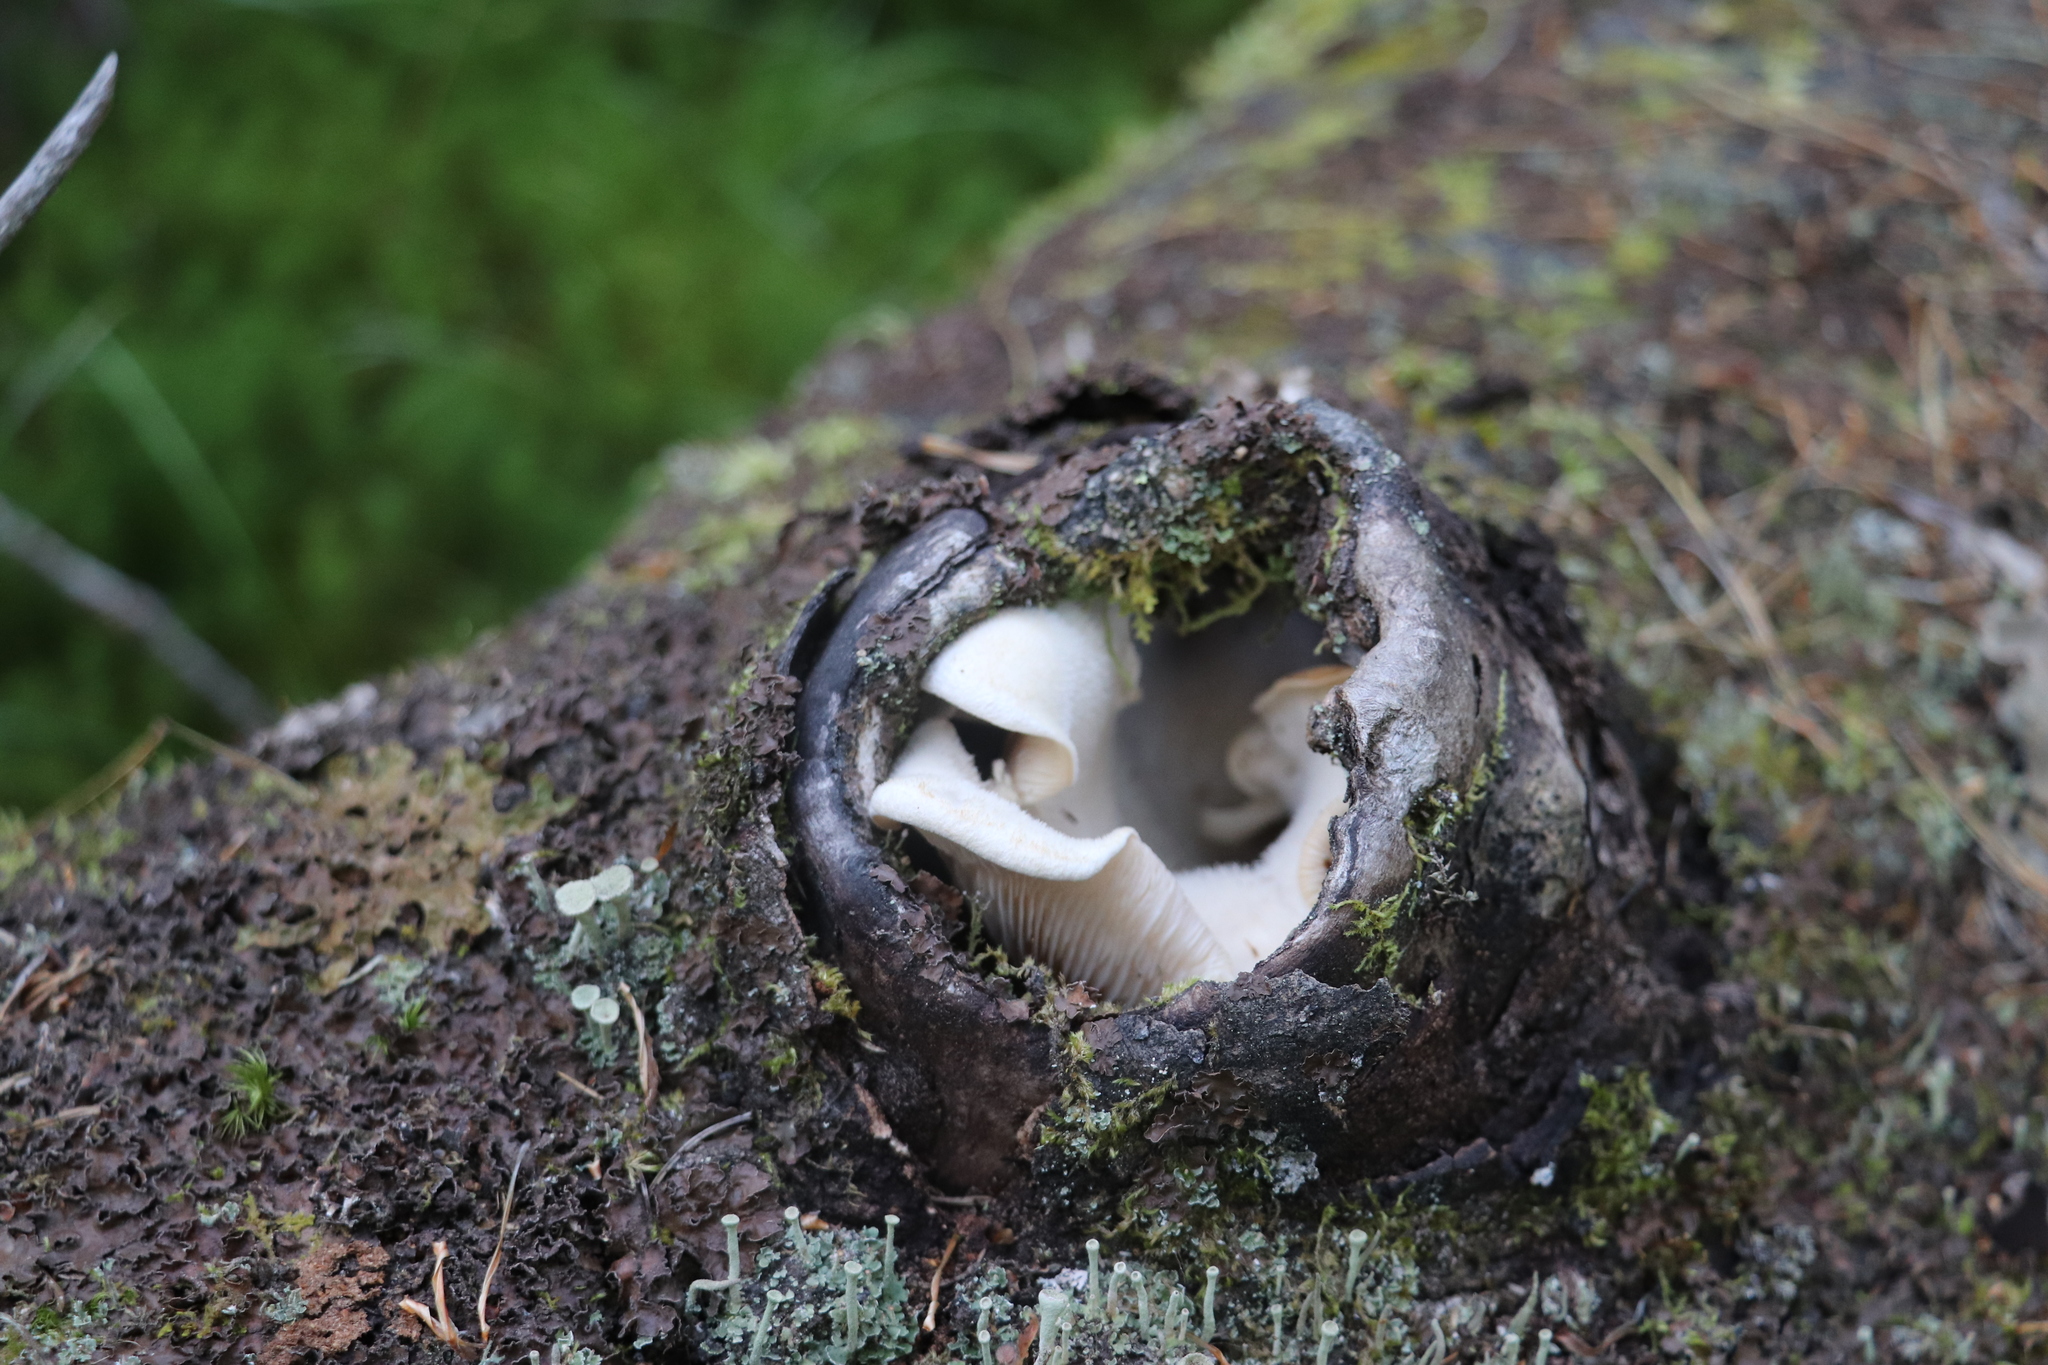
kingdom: Fungi
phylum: Basidiomycota
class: Agaricomycetes
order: Polyporales
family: Polyporaceae
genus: Lentinus
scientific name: Lentinus pilososquamulosus
